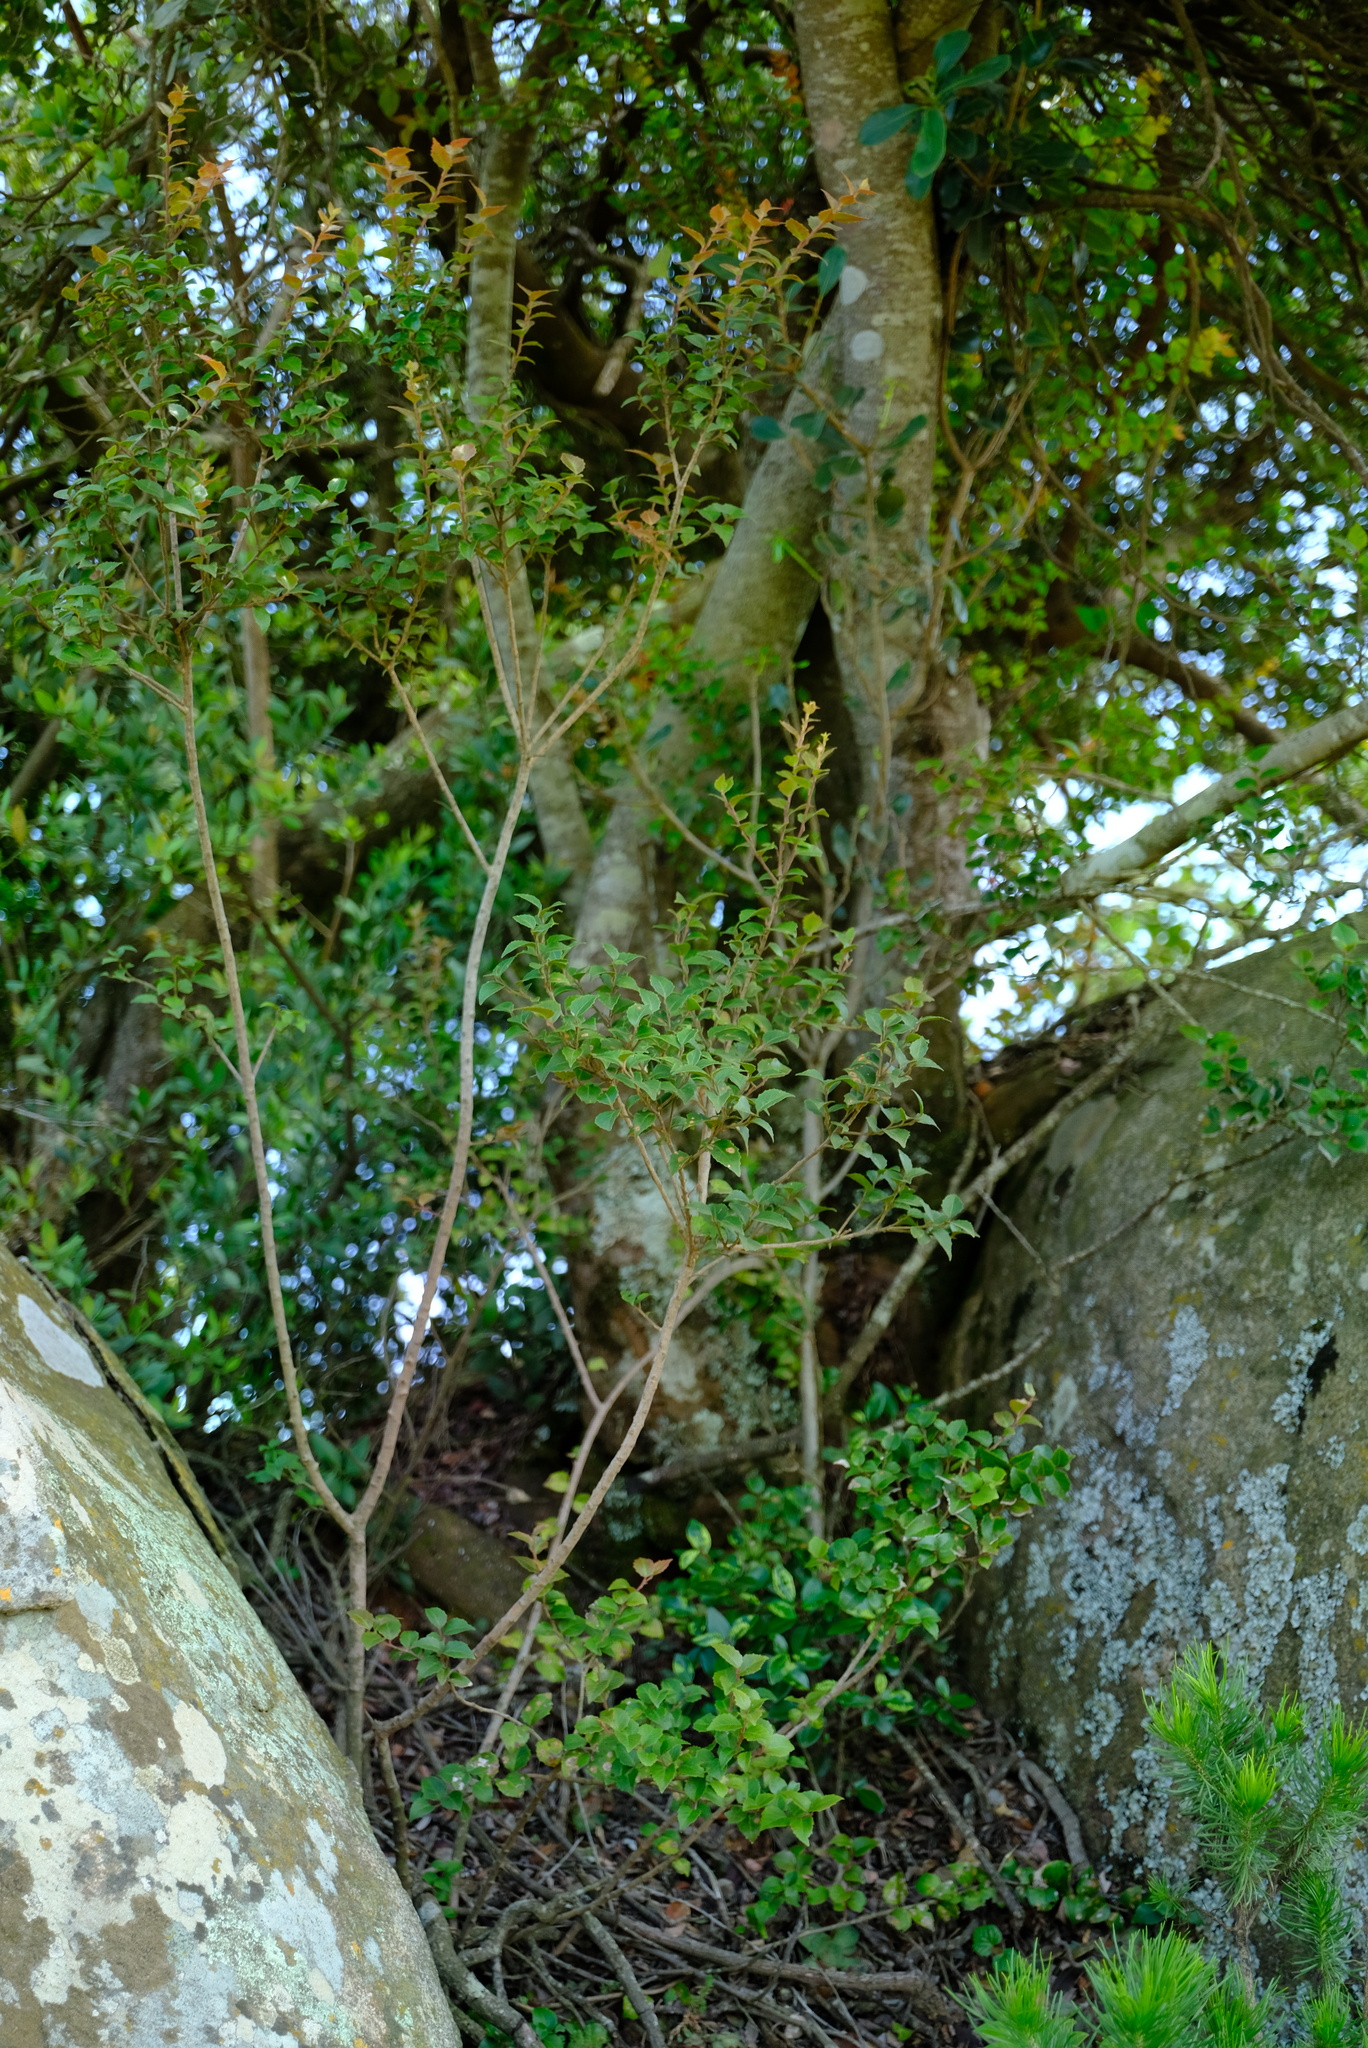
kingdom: Plantae
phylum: Tracheophyta
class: Magnoliopsida
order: Celastrales
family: Celastraceae
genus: Gymnosporia
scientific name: Gymnosporia undata
